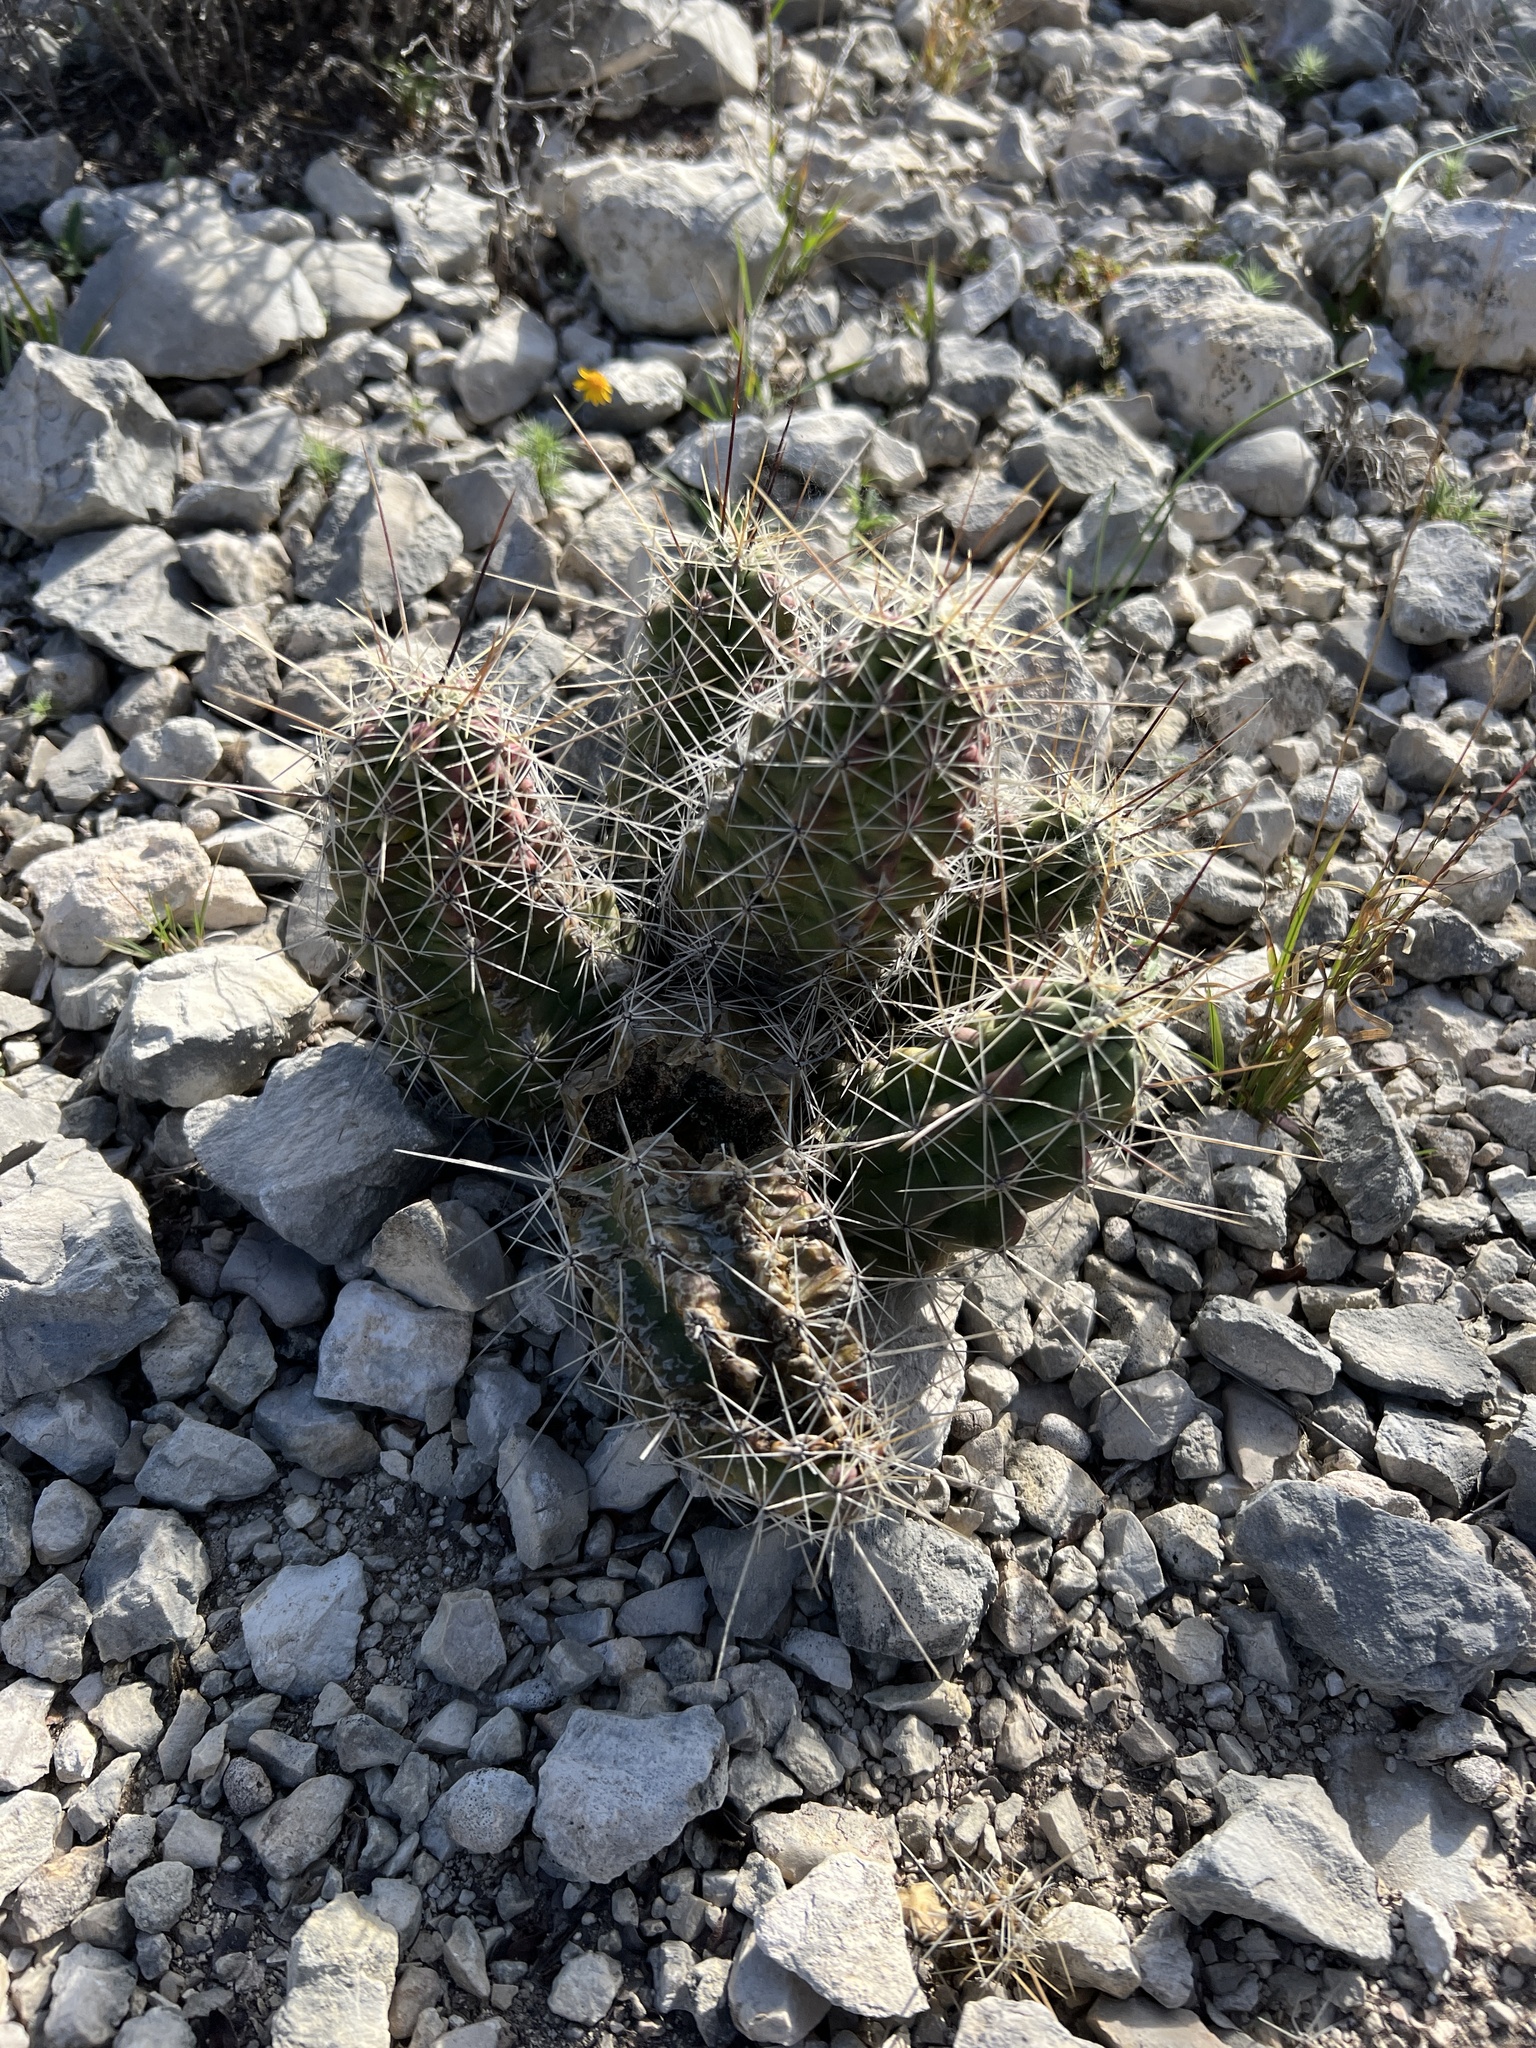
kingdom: Plantae
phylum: Tracheophyta
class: Magnoliopsida
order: Caryophyllales
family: Cactaceae
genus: Echinocereus
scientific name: Echinocereus enneacanthus
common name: Pitaya
